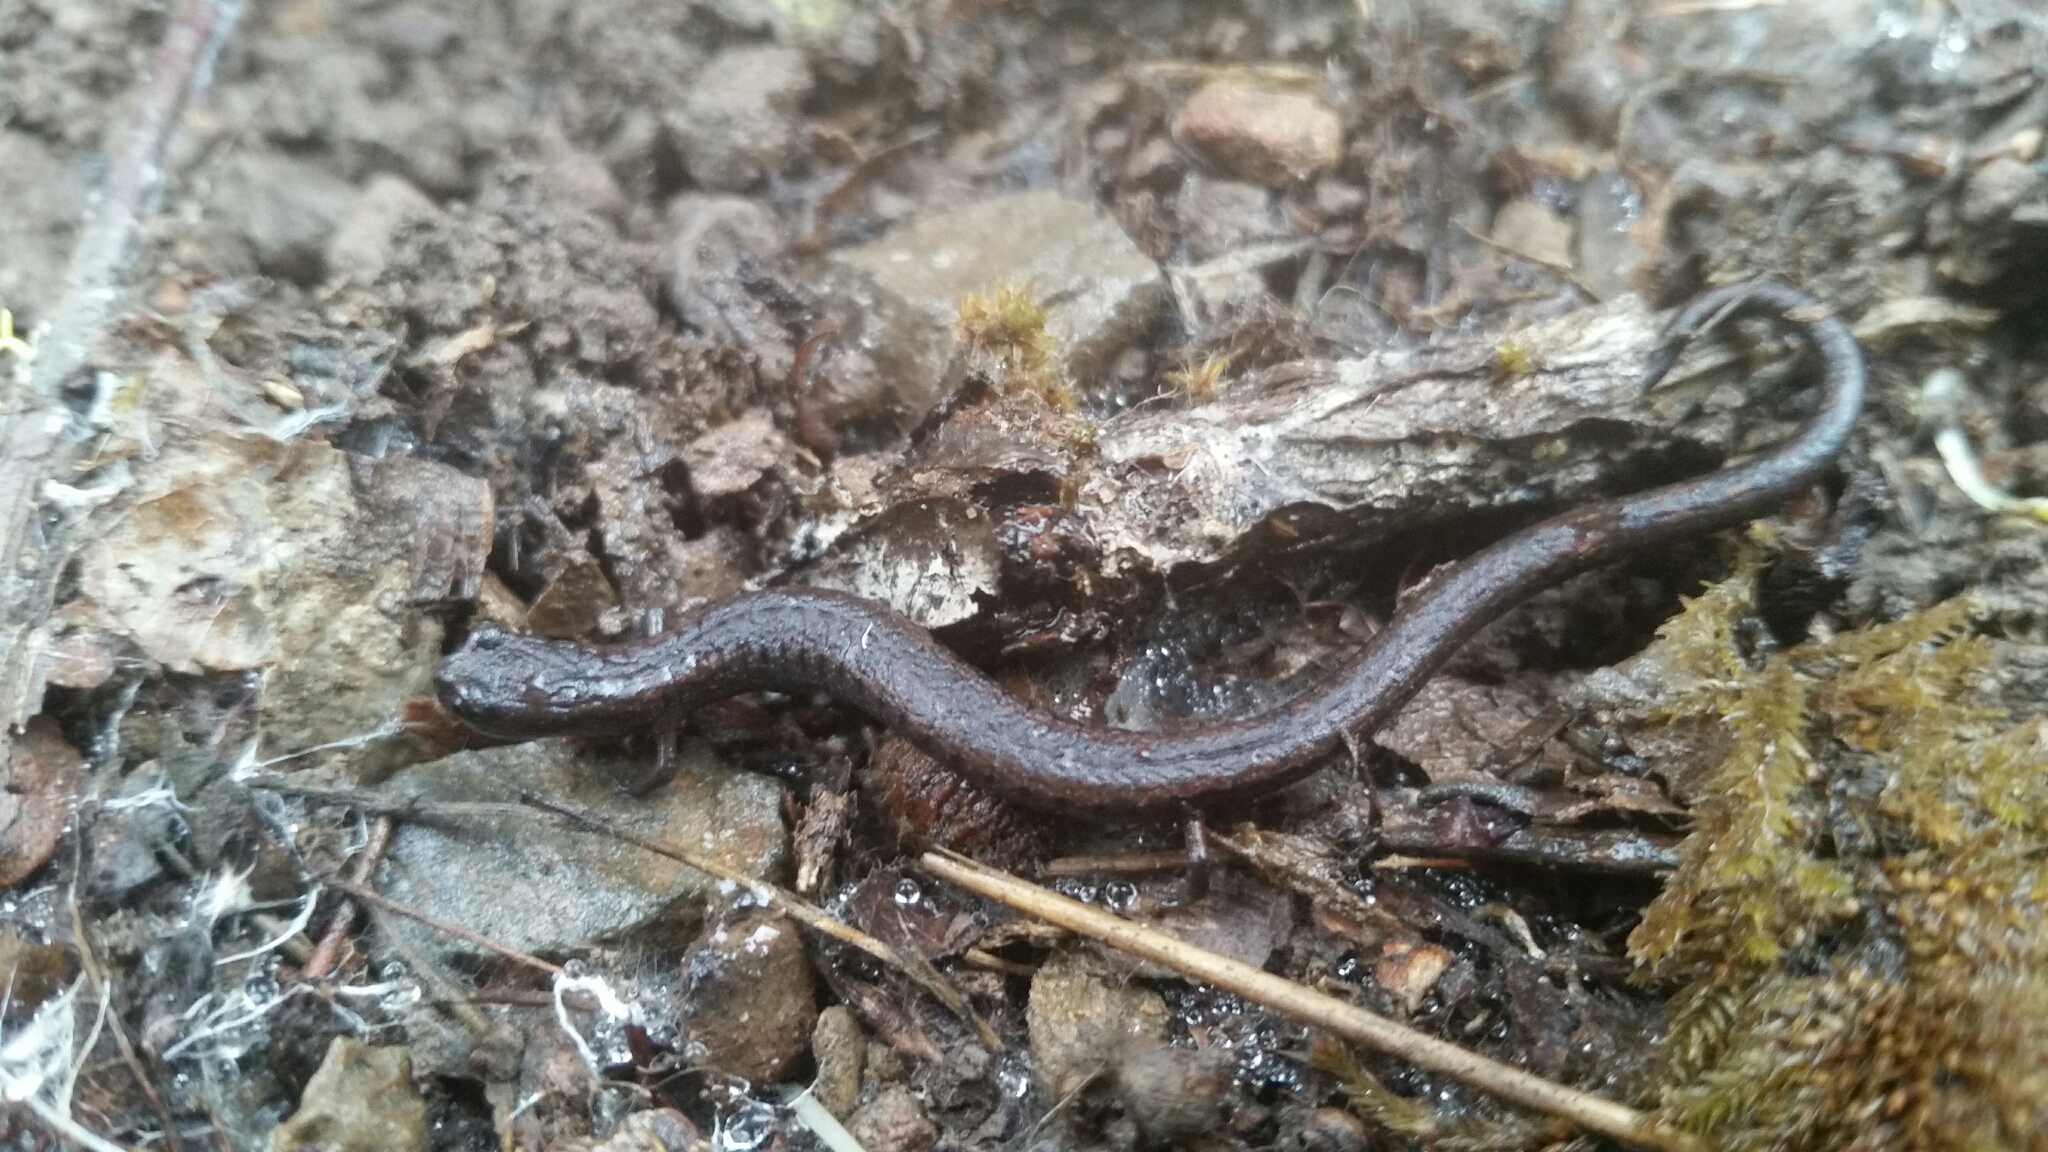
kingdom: Animalia
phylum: Chordata
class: Amphibia
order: Caudata
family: Plethodontidae
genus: Batrachoseps
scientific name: Batrachoseps attenuatus
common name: California slender salamander
